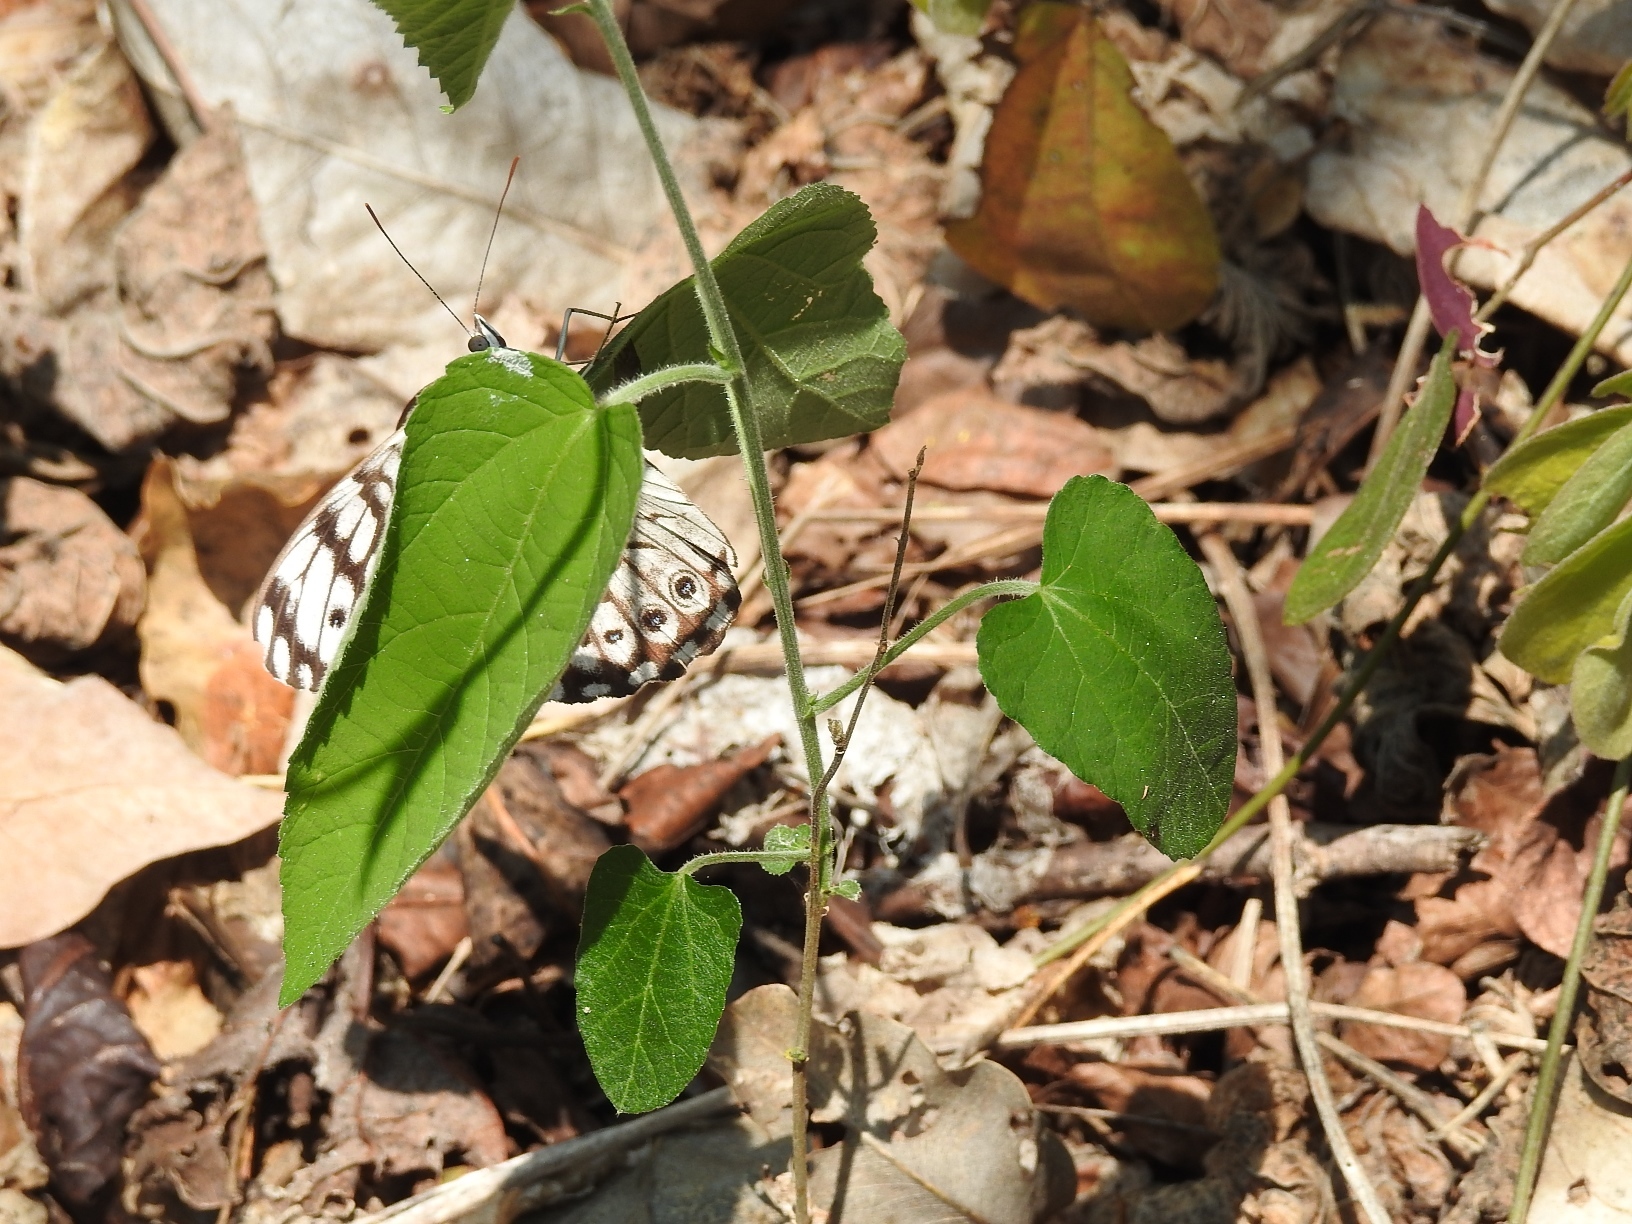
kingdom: Animalia
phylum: Arthropoda
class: Insecta
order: Lepidoptera
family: Nymphalidae
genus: Hamadryas
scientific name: Hamadryas atlantis
